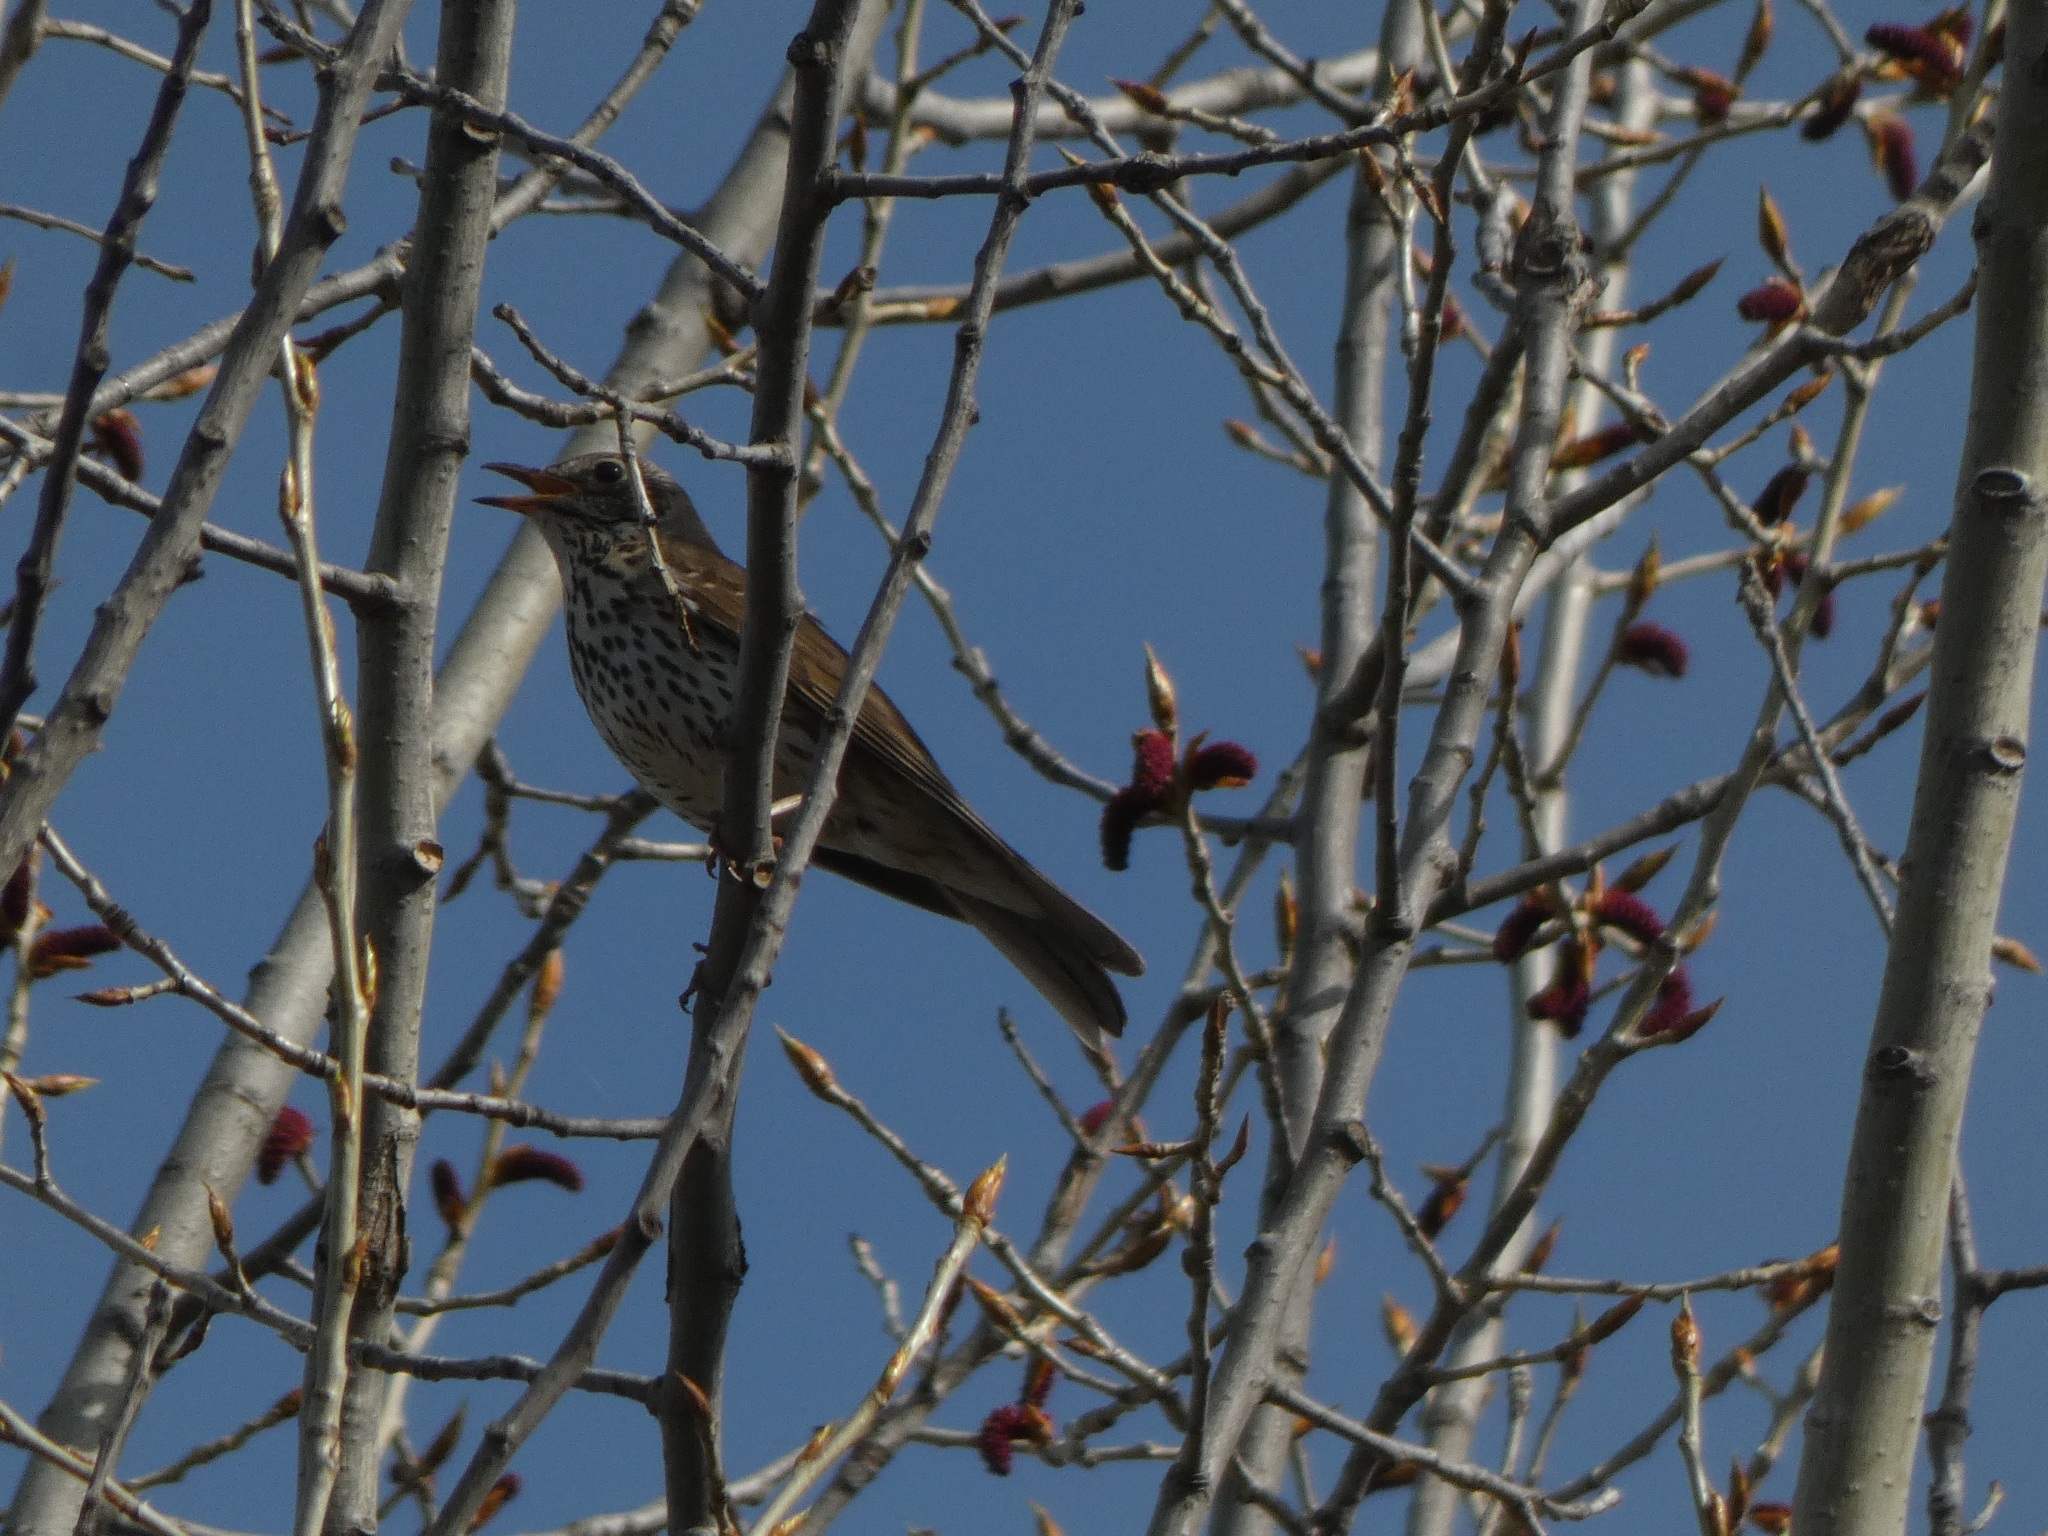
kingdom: Animalia
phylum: Chordata
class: Aves
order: Passeriformes
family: Turdidae
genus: Turdus
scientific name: Turdus philomelos
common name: Song thrush
